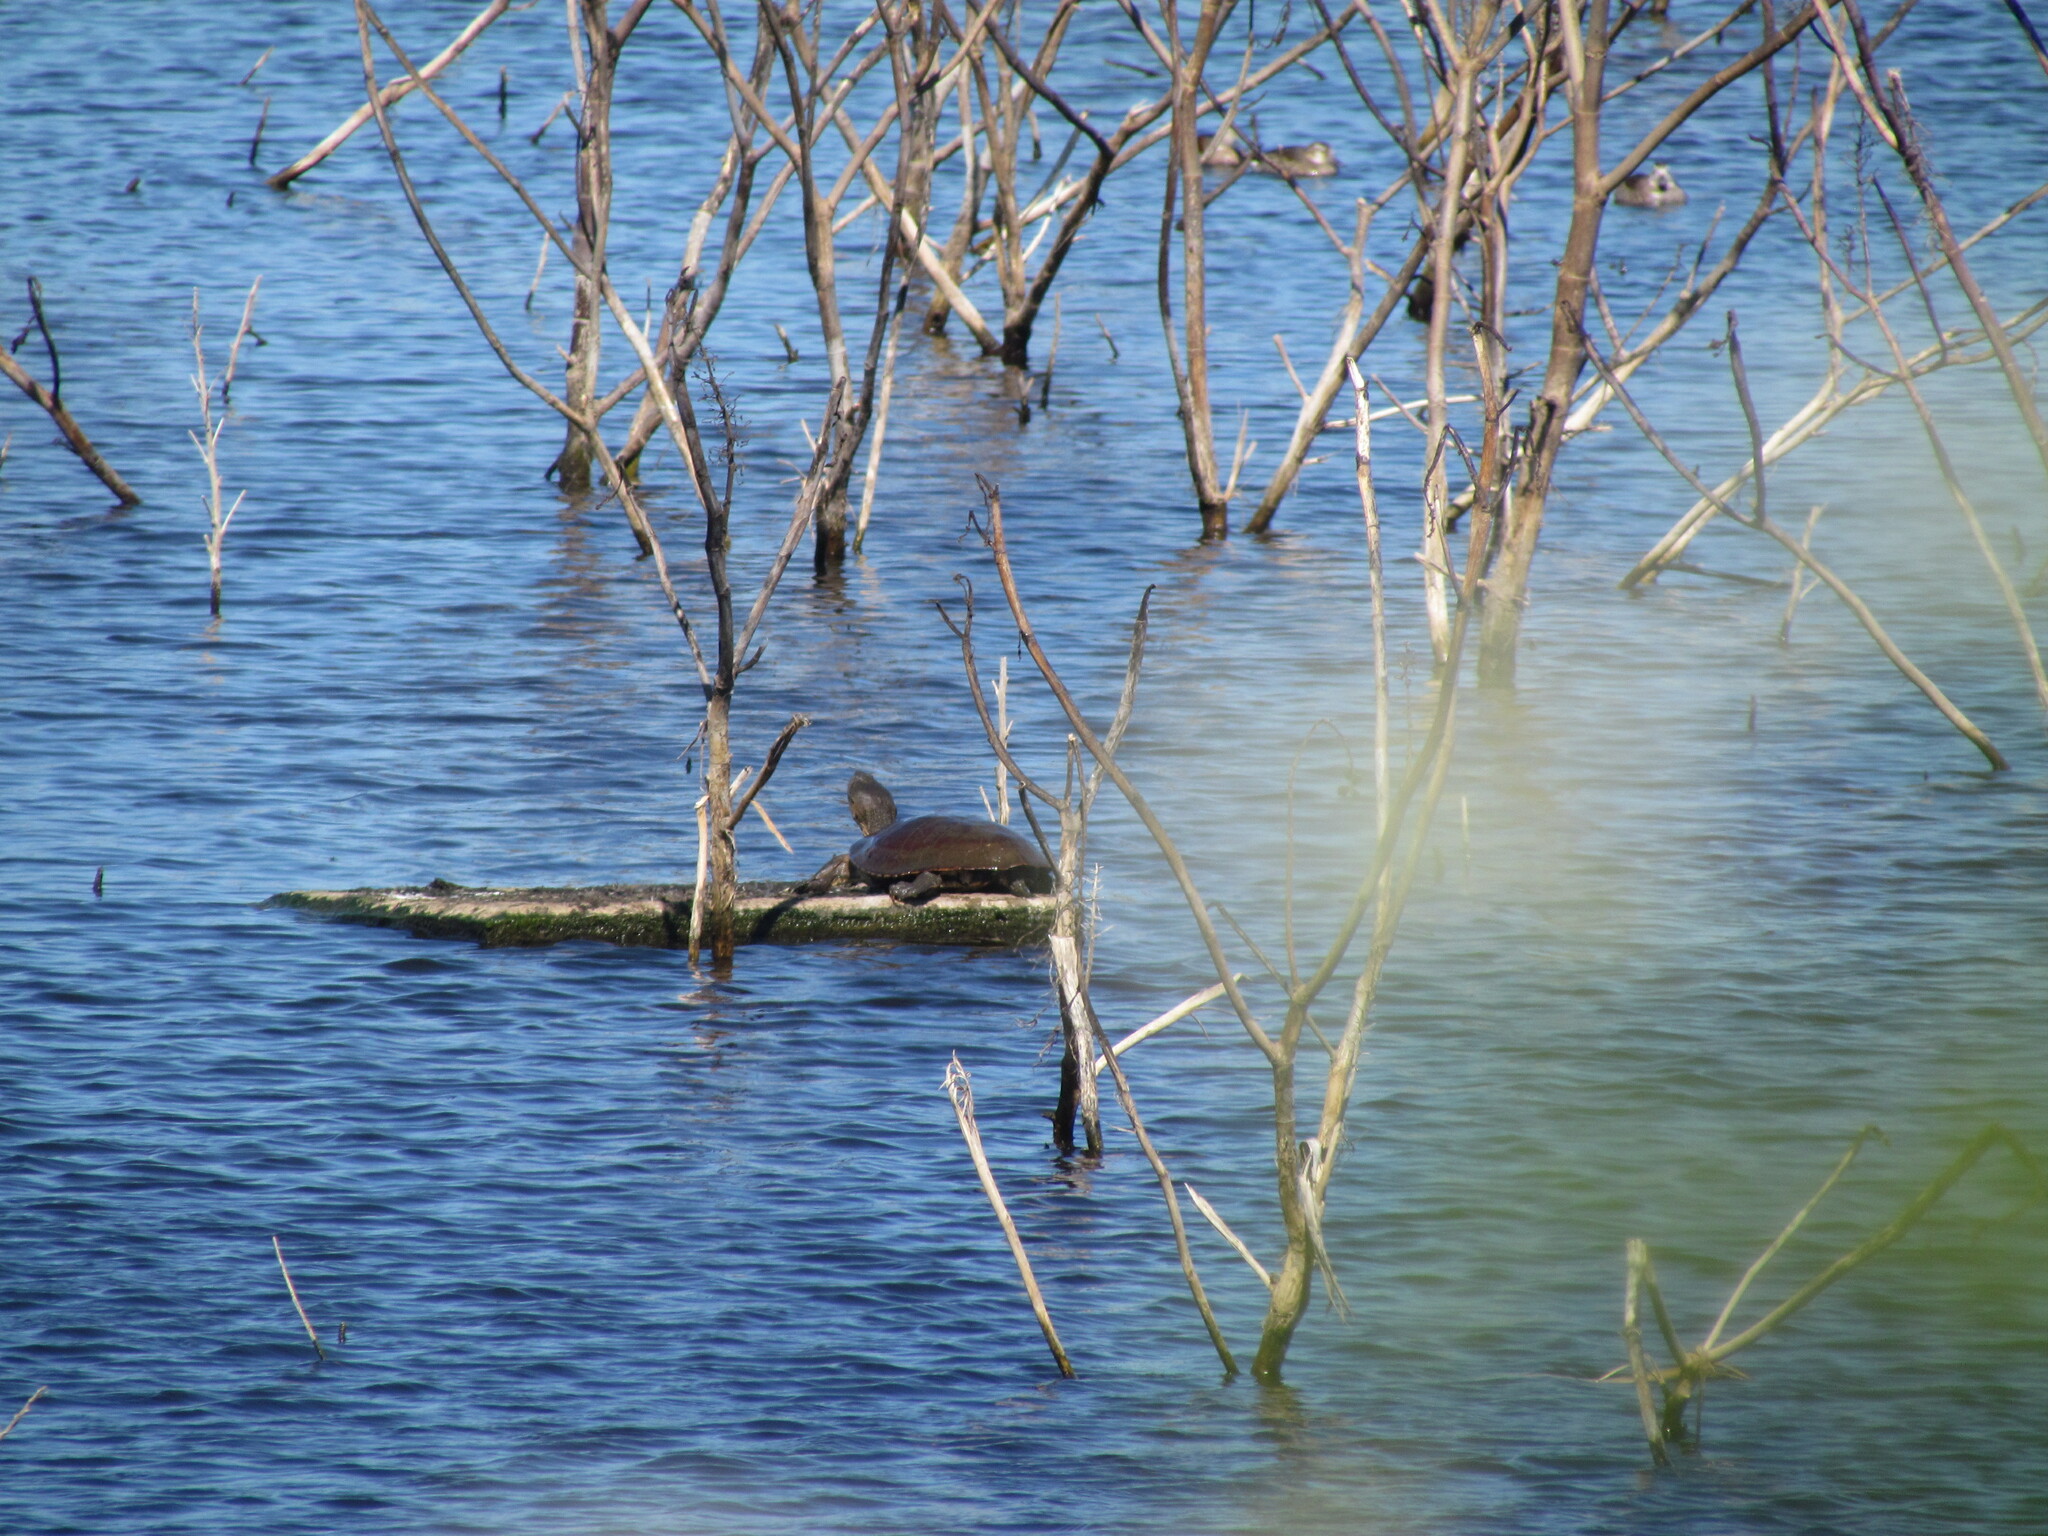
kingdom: Animalia
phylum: Chordata
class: Testudines
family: Chelidae
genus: Phrynops
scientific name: Phrynops hilarii
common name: Side-necked turtle of saint hillaire
